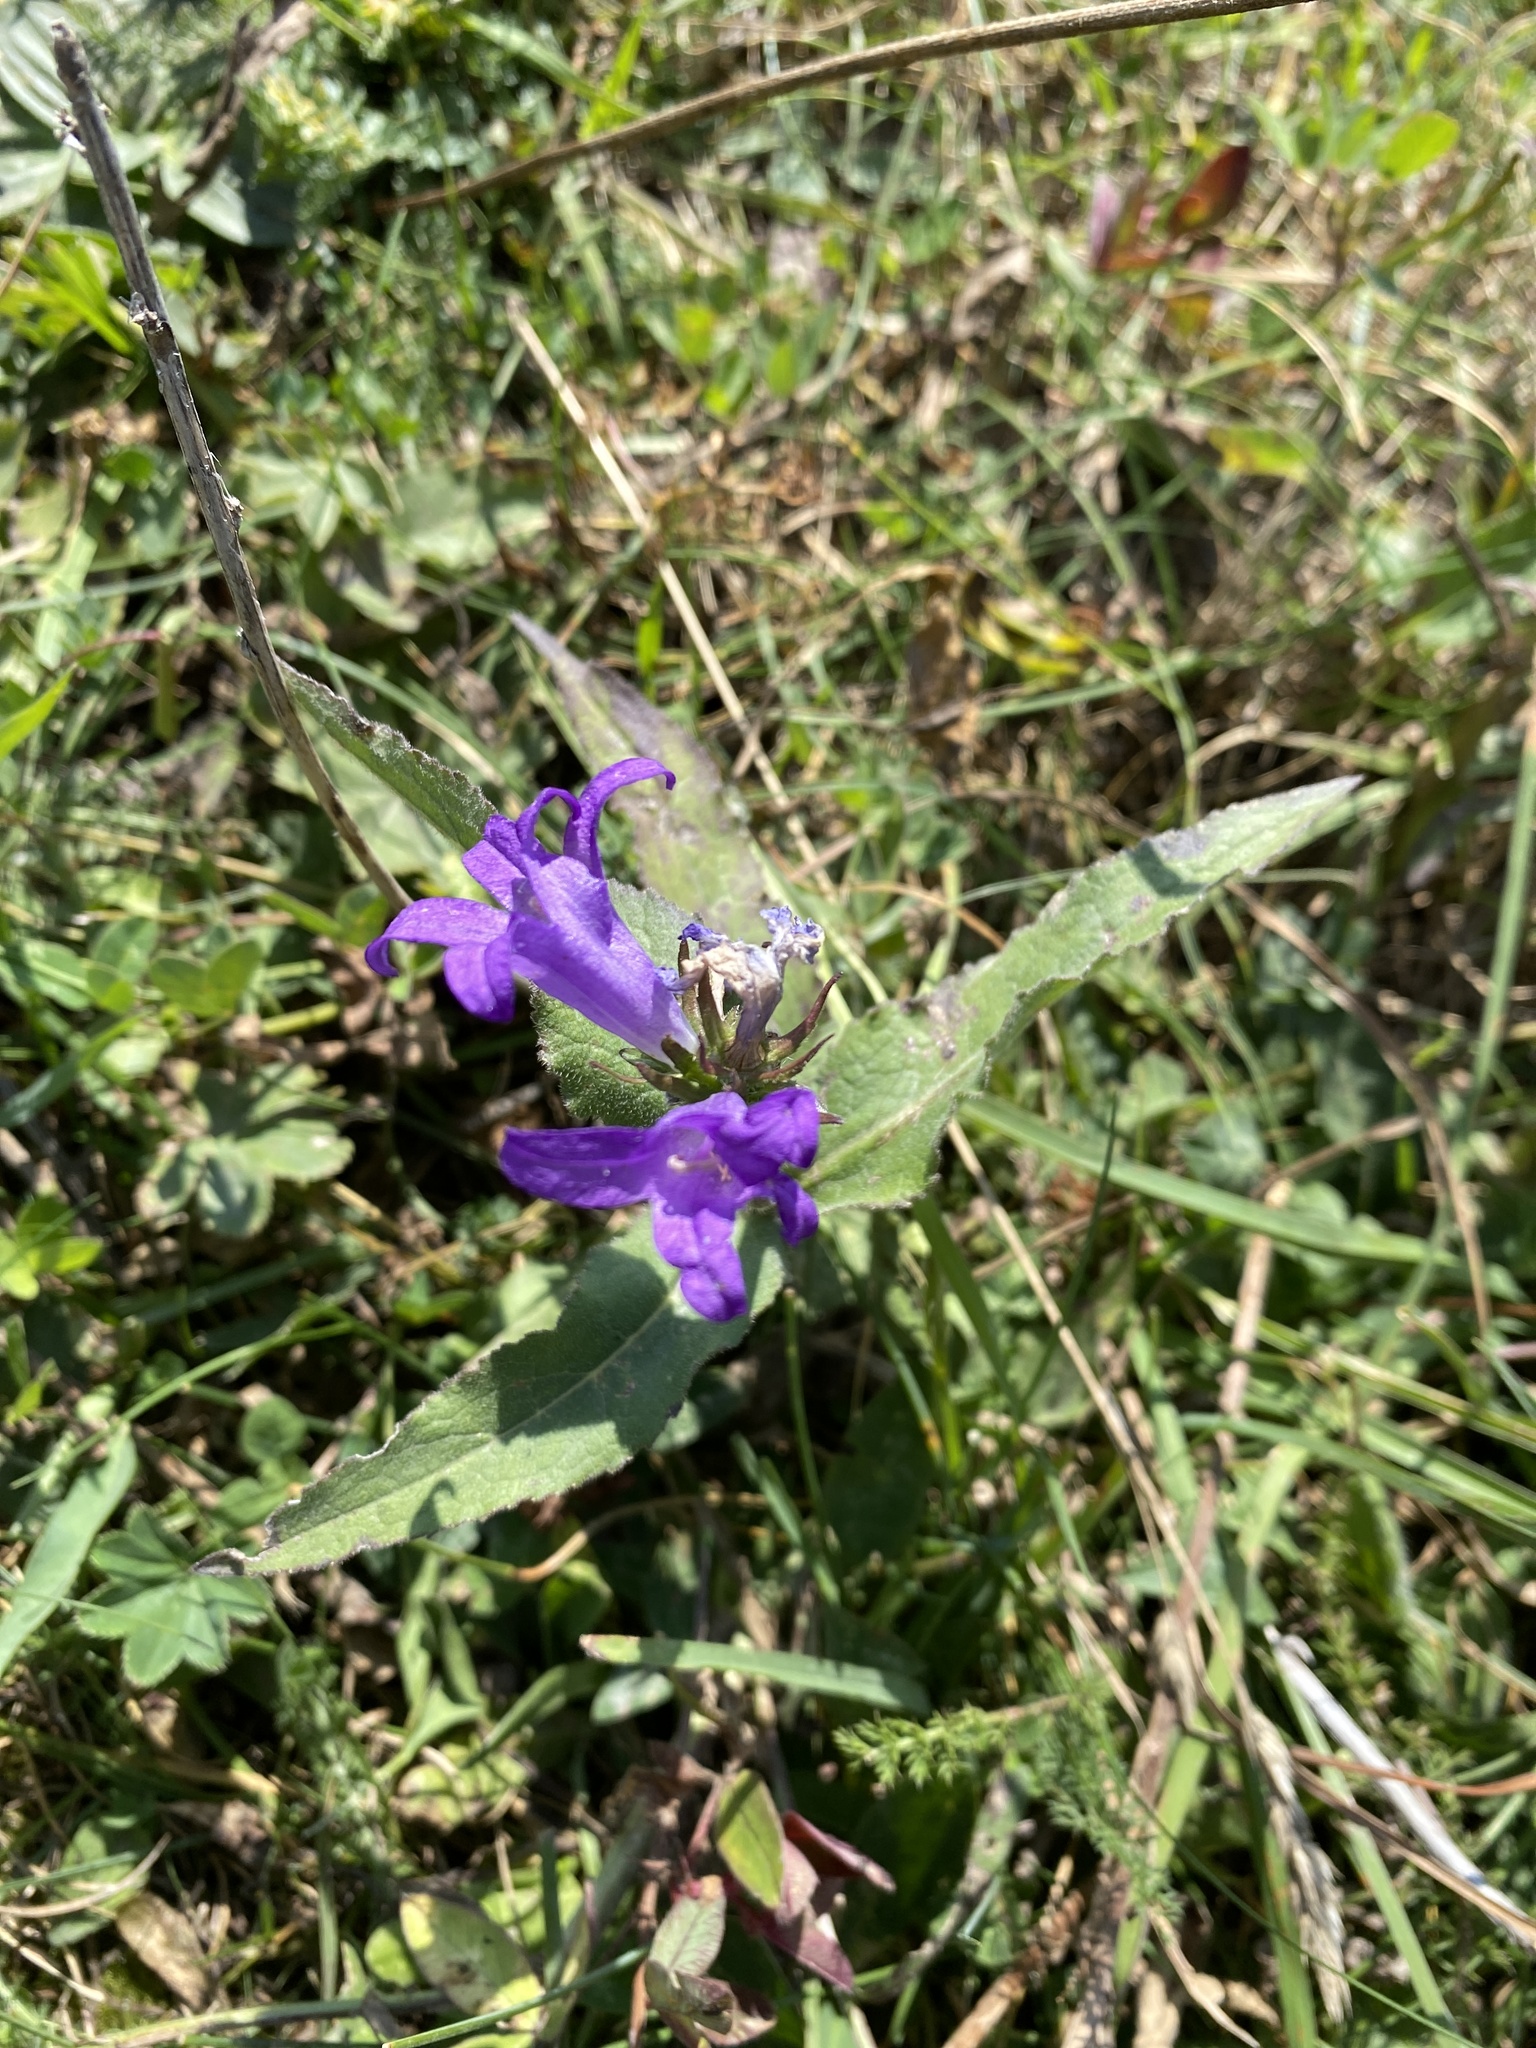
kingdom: Plantae
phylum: Tracheophyta
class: Magnoliopsida
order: Asterales
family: Campanulaceae
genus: Campanula
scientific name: Campanula glomerata
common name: Clustered bellflower
